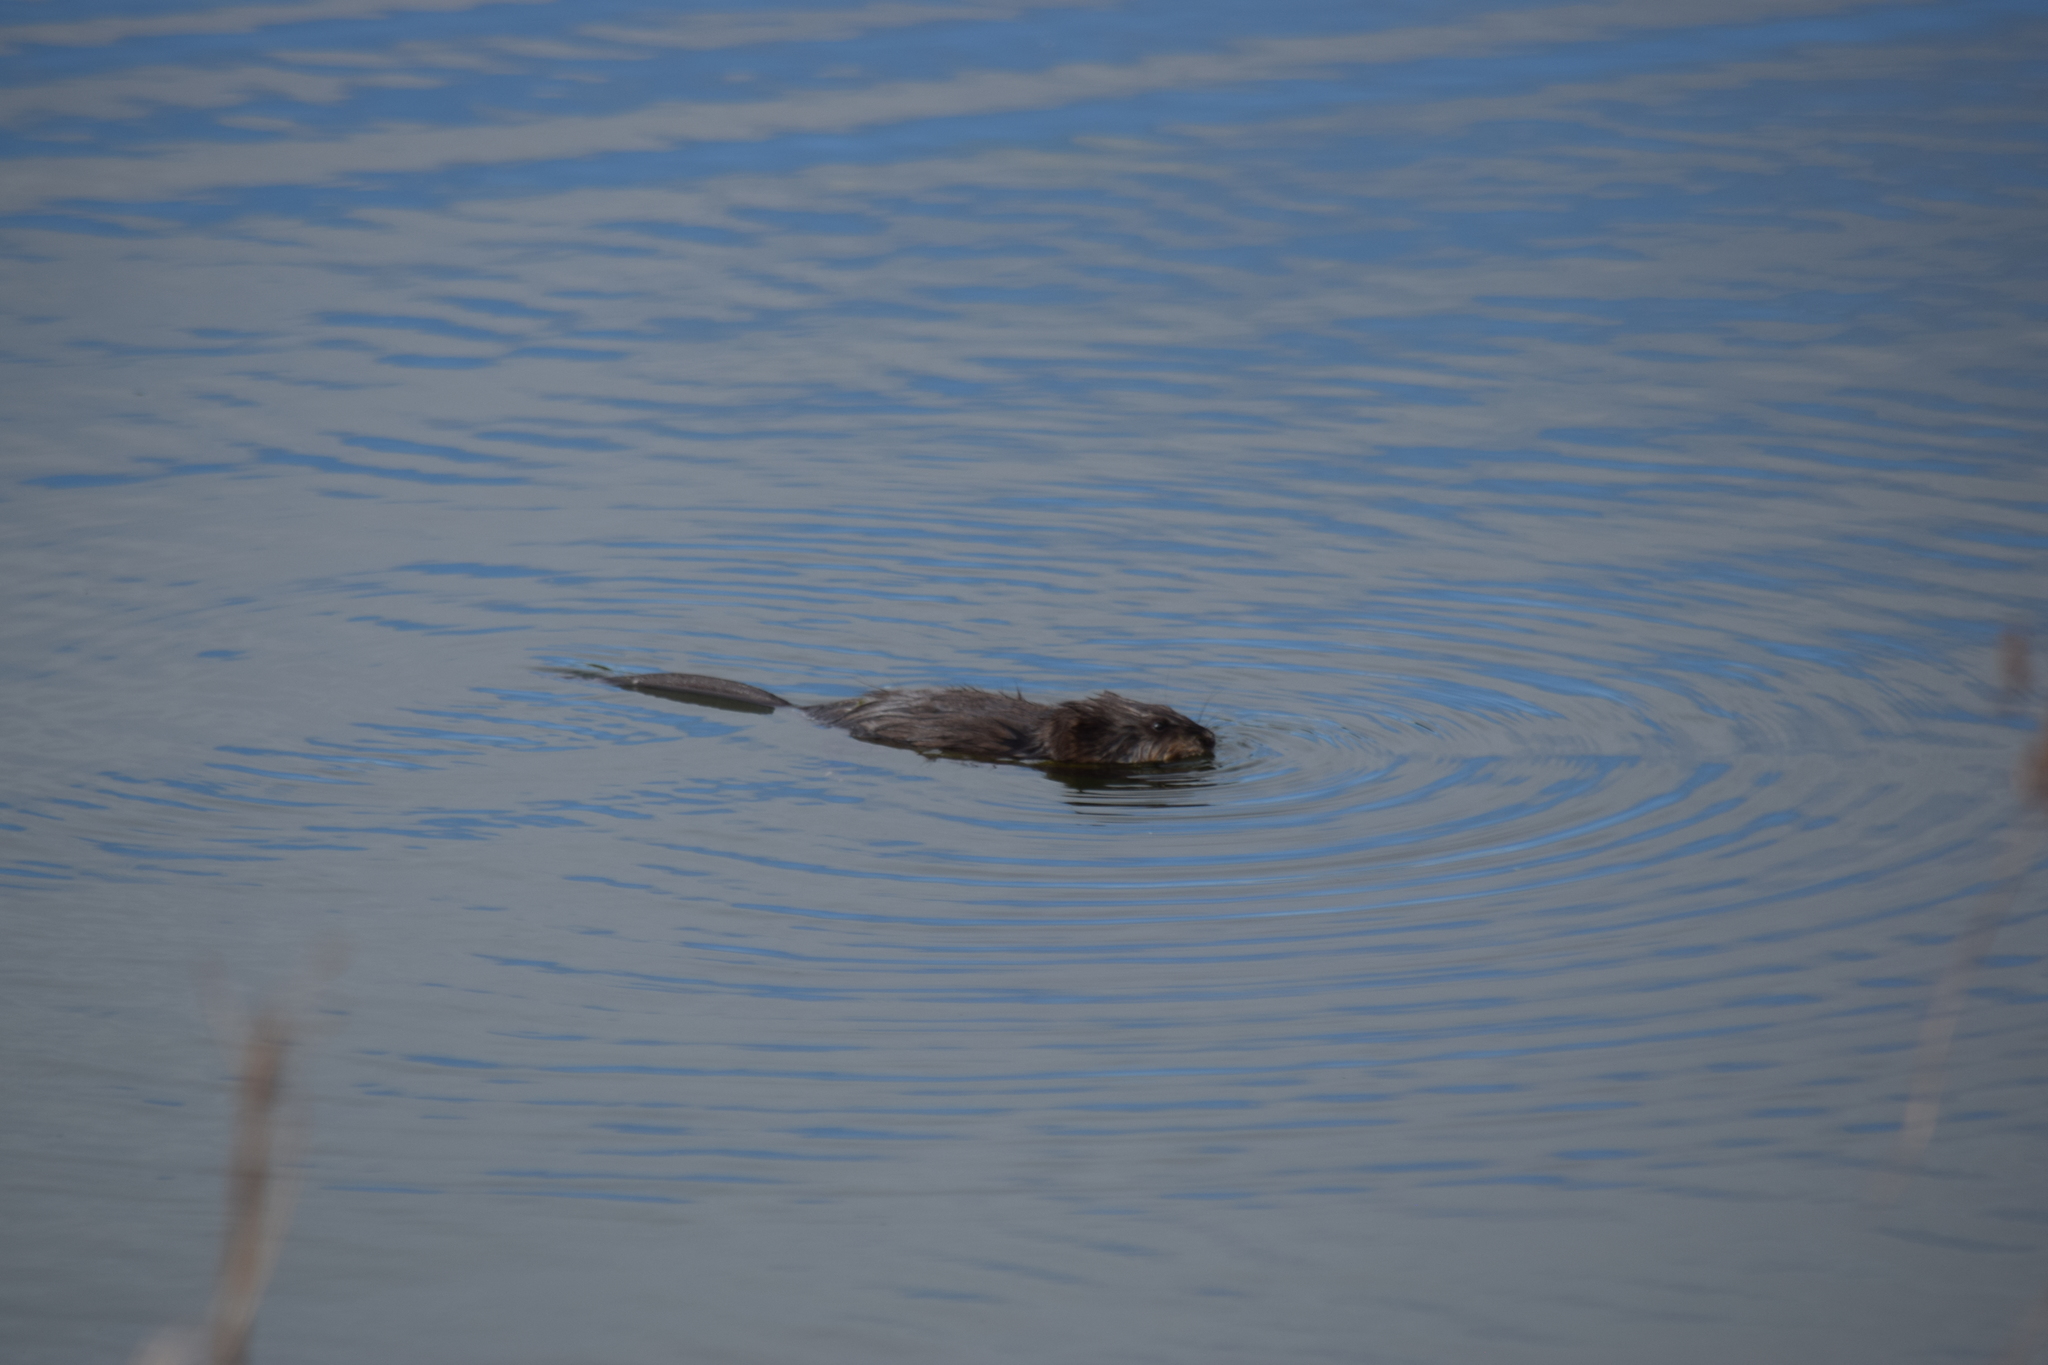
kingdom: Animalia
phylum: Chordata
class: Mammalia
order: Rodentia
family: Cricetidae
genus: Ondatra
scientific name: Ondatra zibethicus
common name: Muskrat
